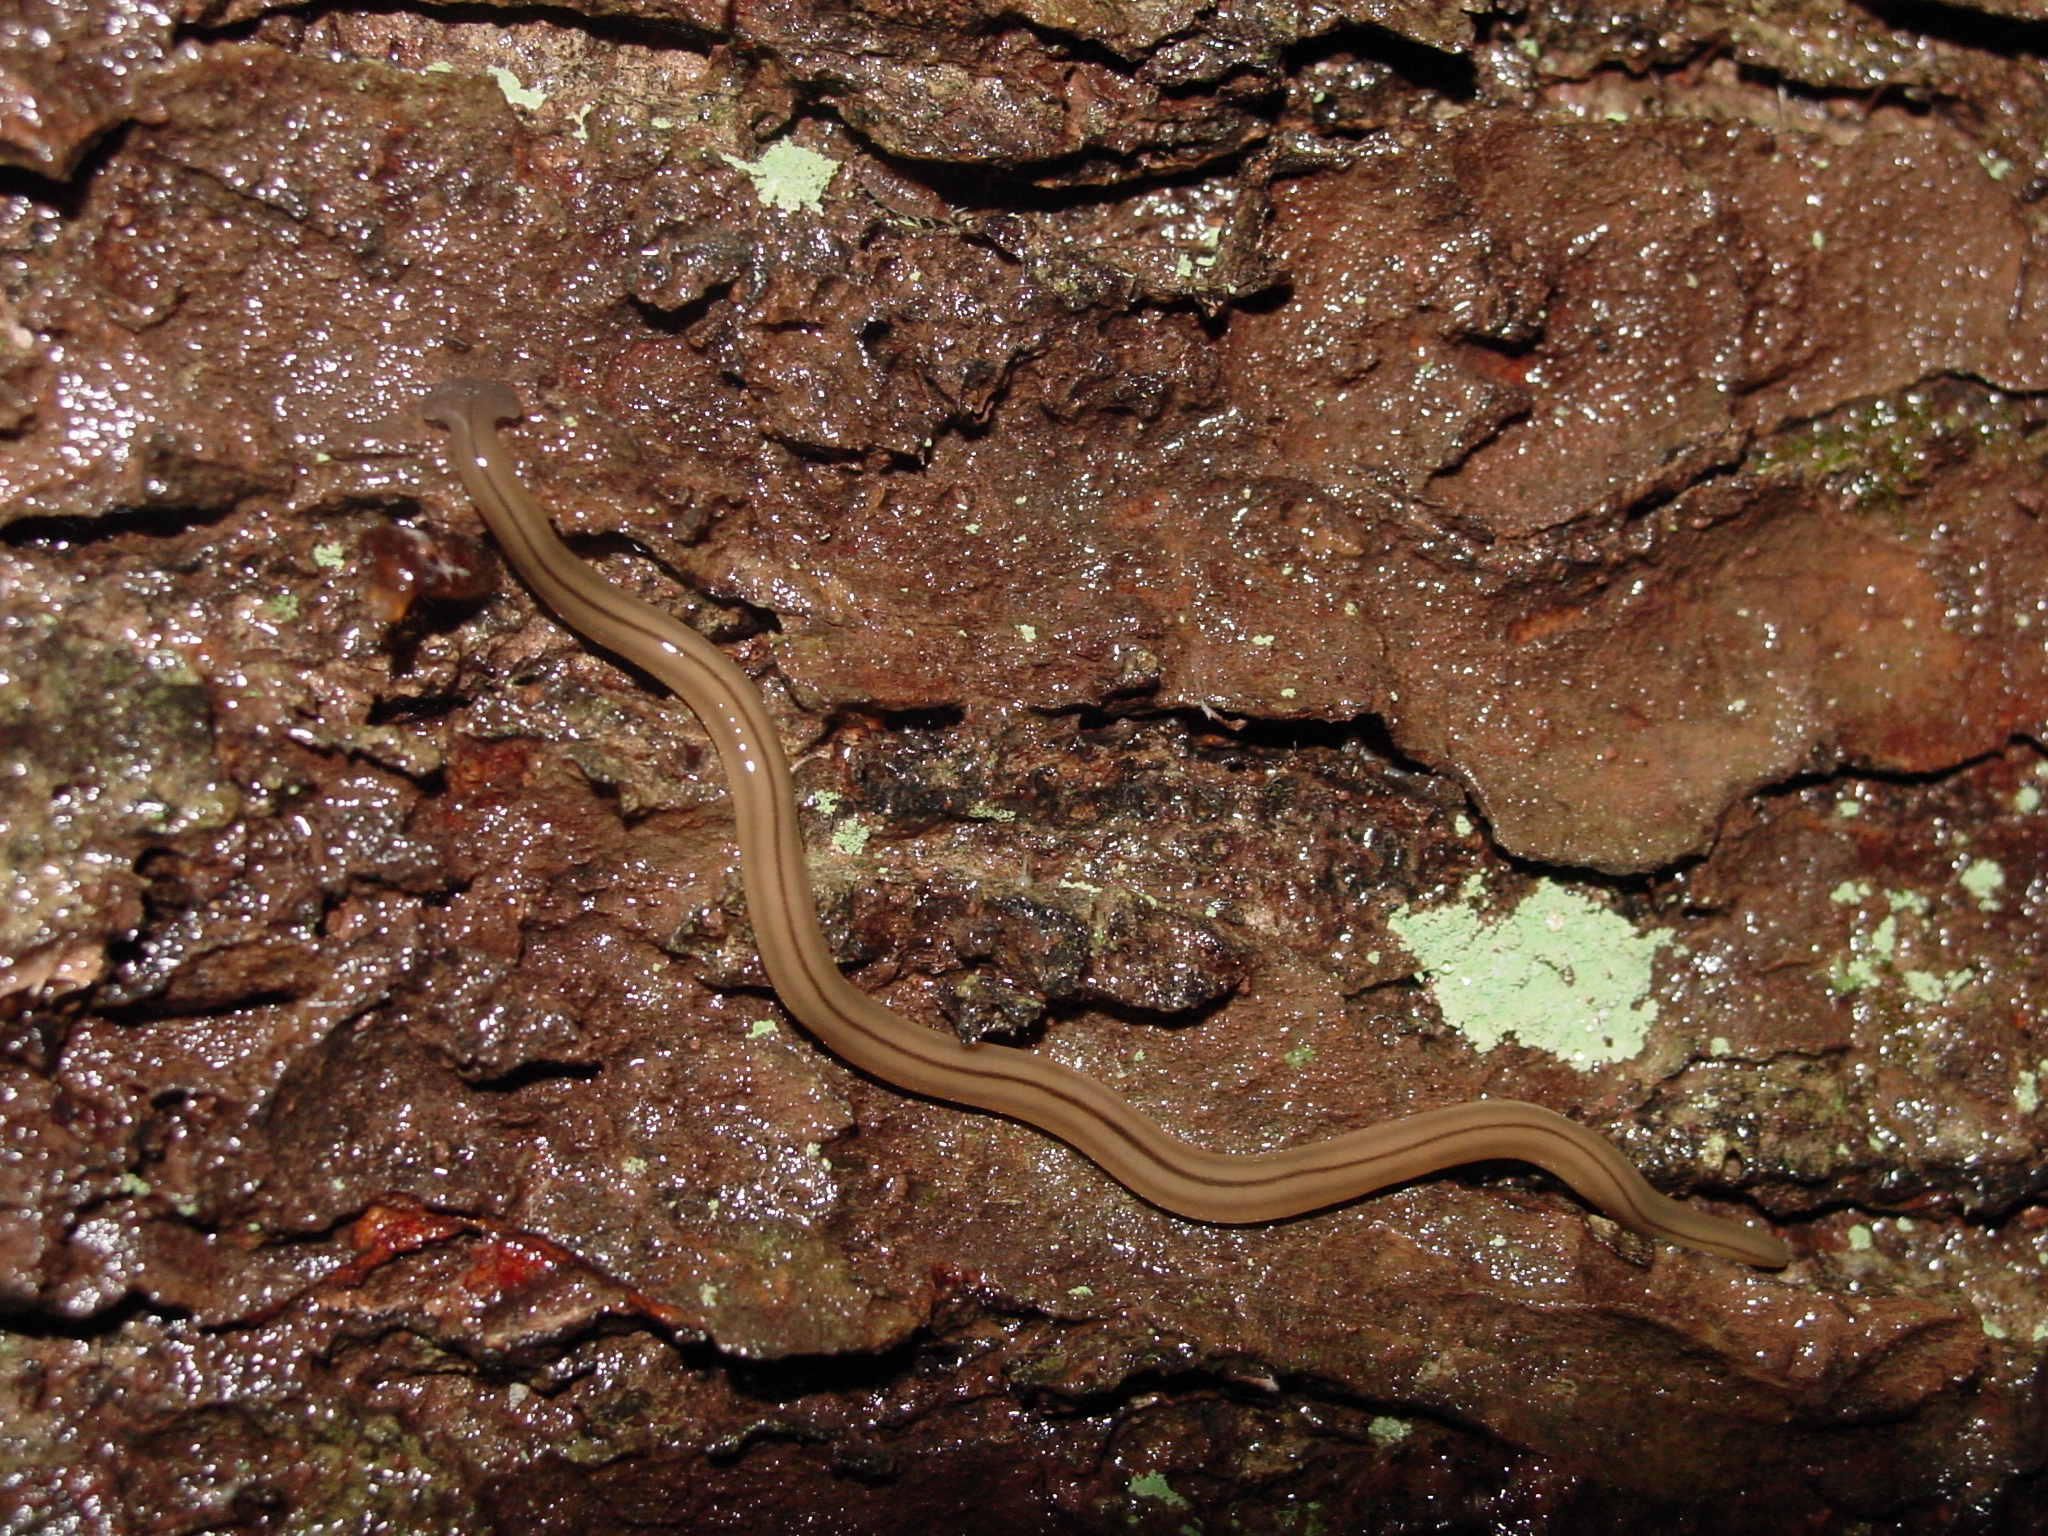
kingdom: Animalia
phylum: Platyhelminthes
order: Tricladida
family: Geoplanidae
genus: Bipalium
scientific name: Bipalium pennsylvanicum
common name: Three-lined land planarian
